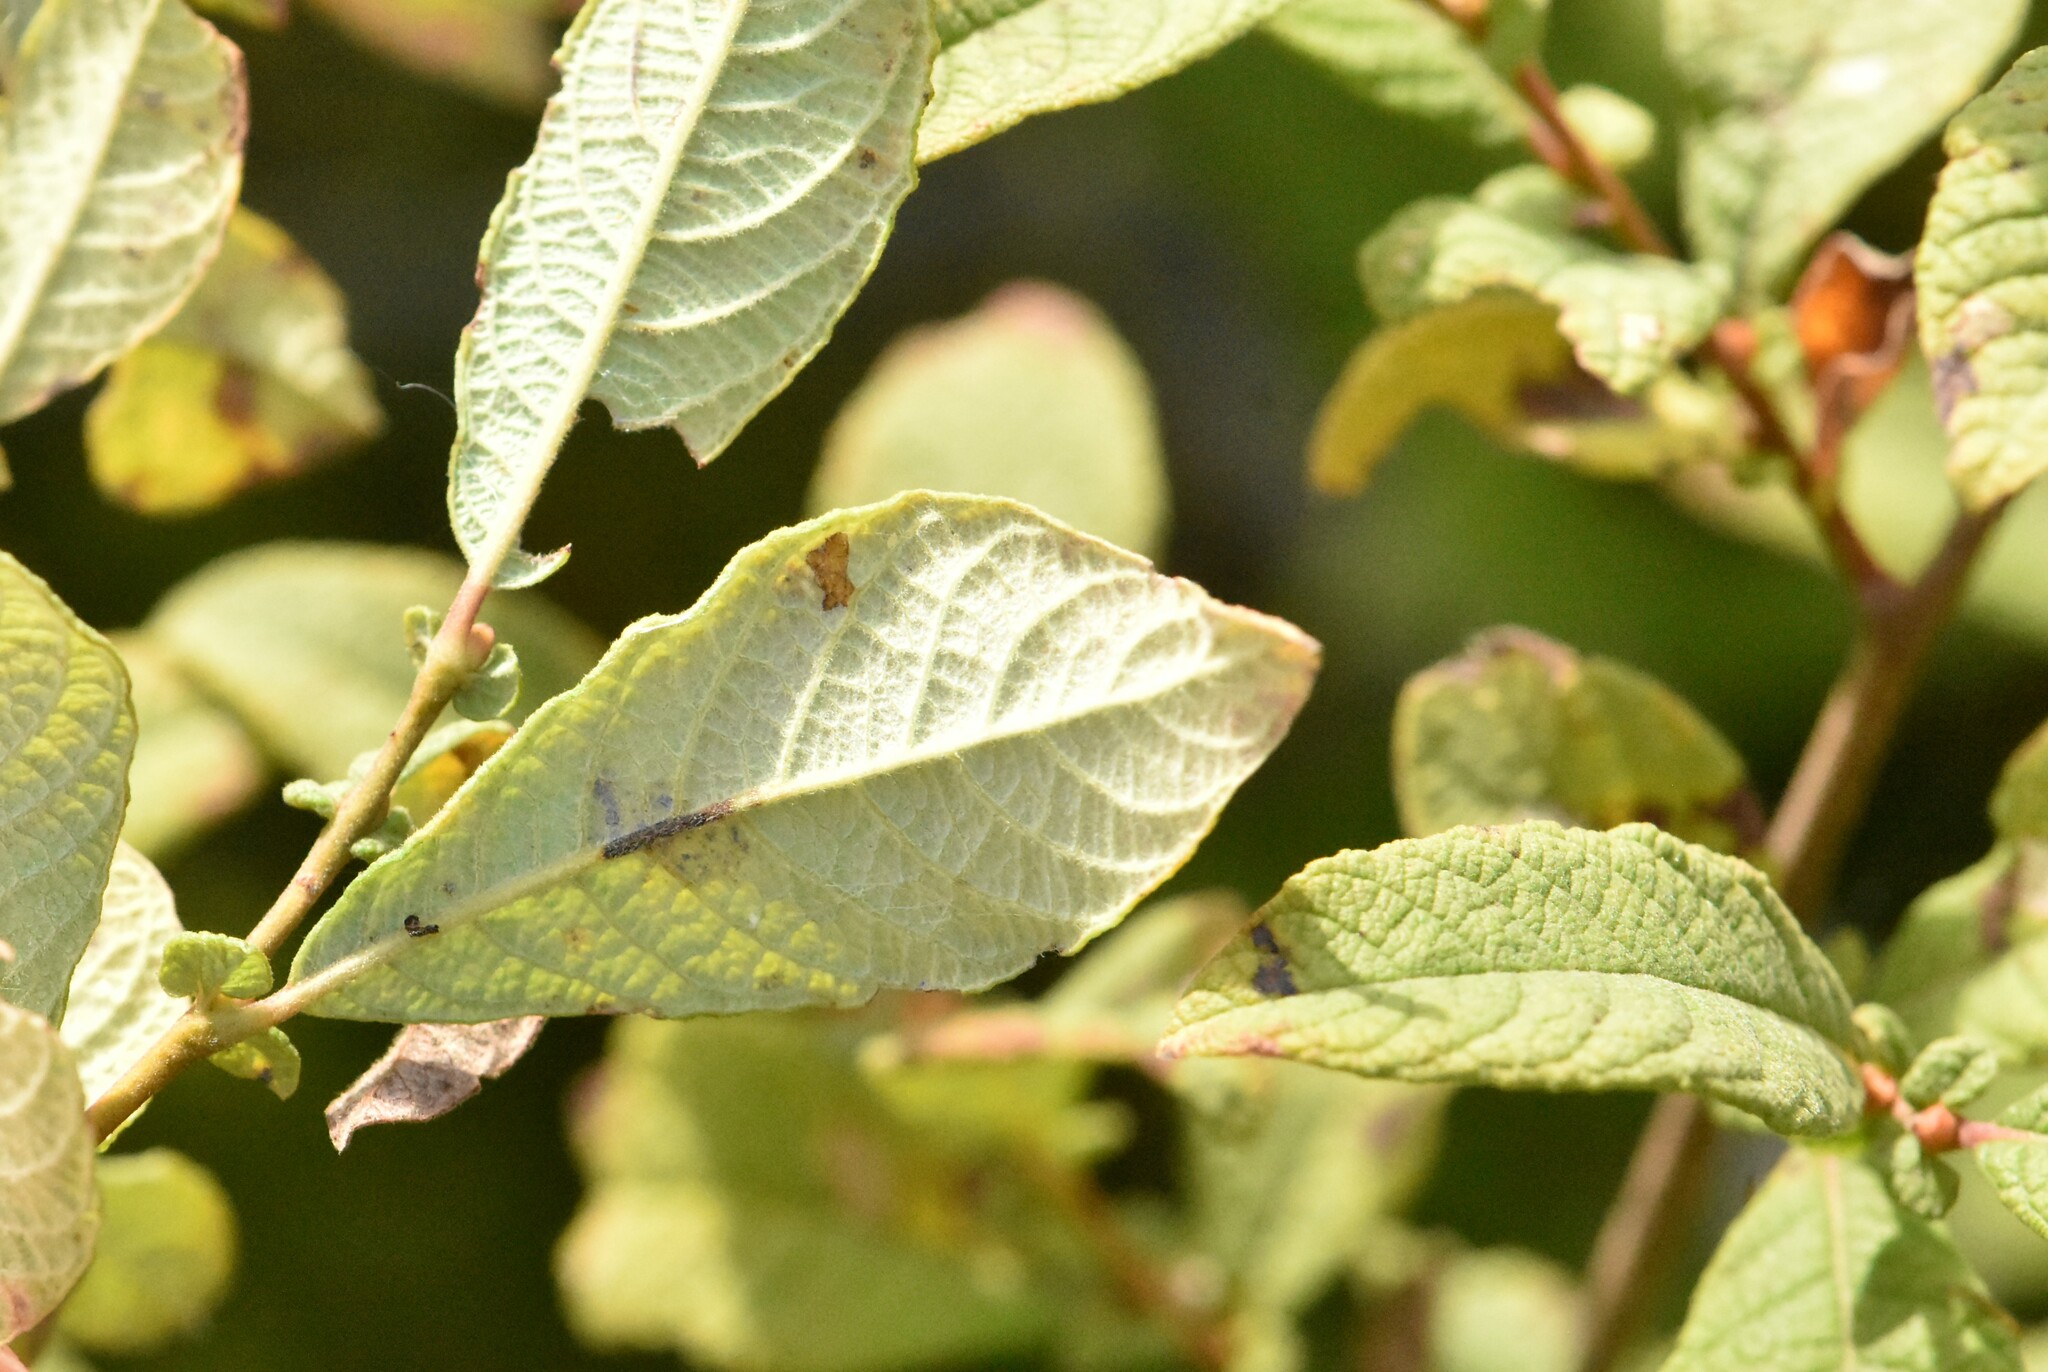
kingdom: Plantae
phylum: Tracheophyta
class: Magnoliopsida
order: Malpighiales
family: Salicaceae
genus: Salix
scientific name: Salix aurita
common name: Eared willow
